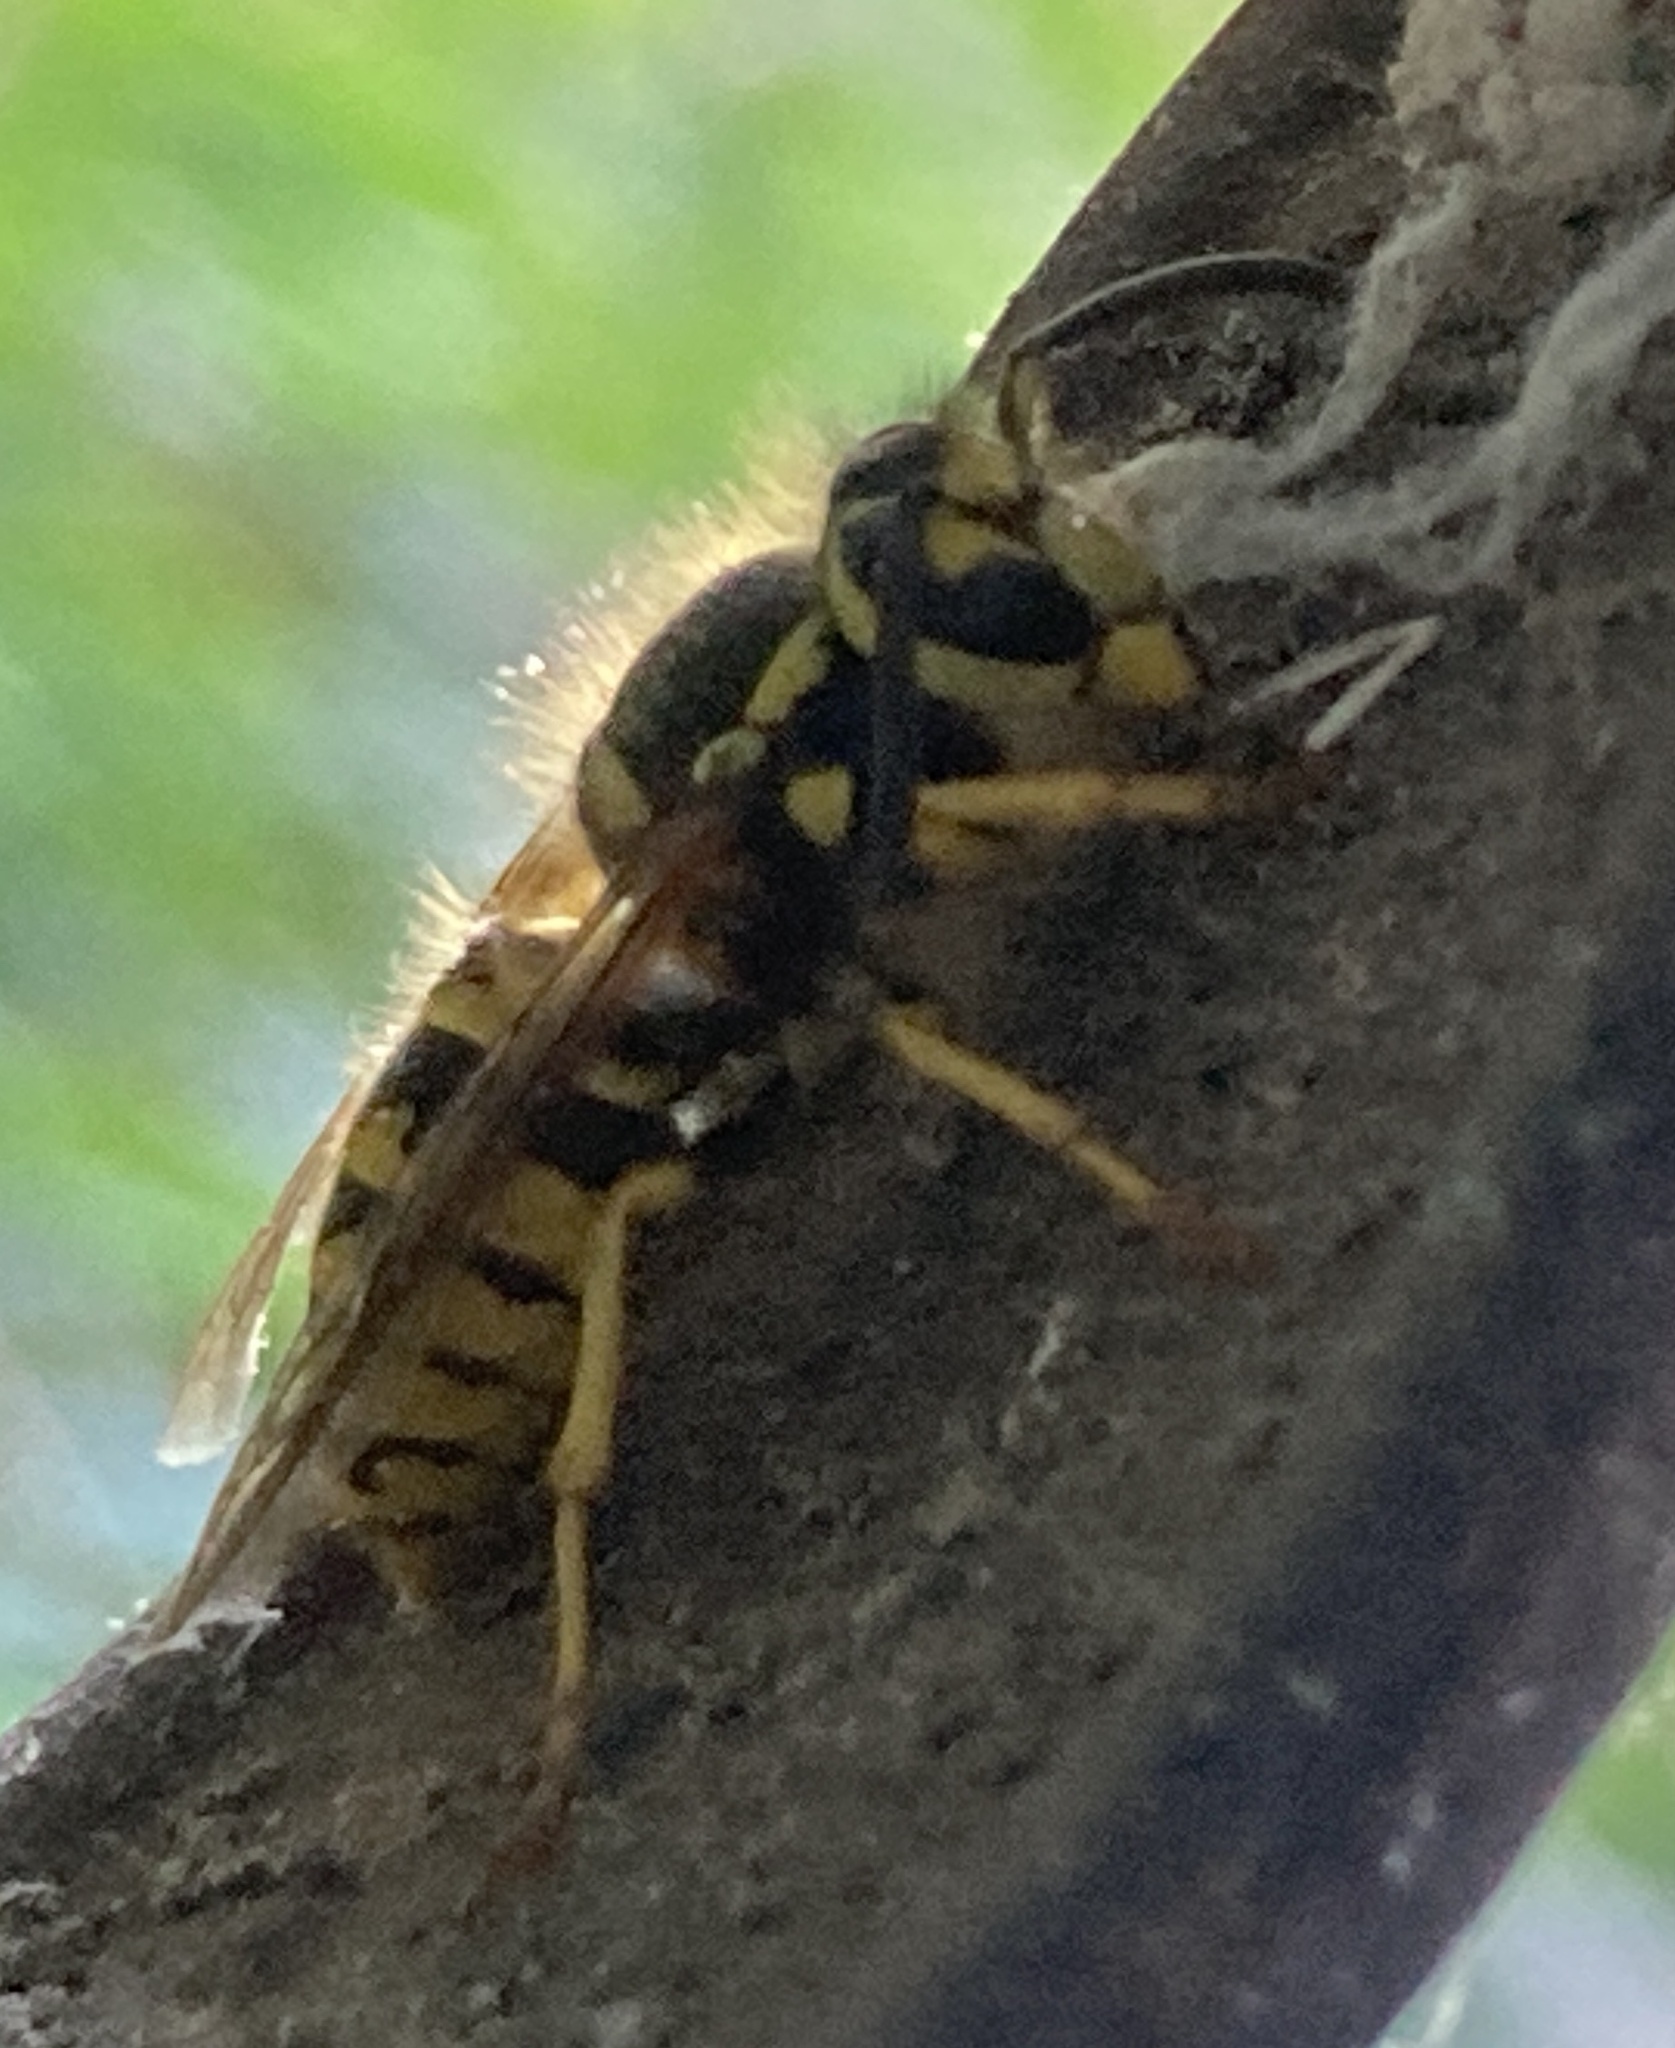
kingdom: Animalia
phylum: Arthropoda
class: Insecta
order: Hymenoptera
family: Vespidae
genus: Vespula
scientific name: Vespula pensylvanica
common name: Western yellowjacket
